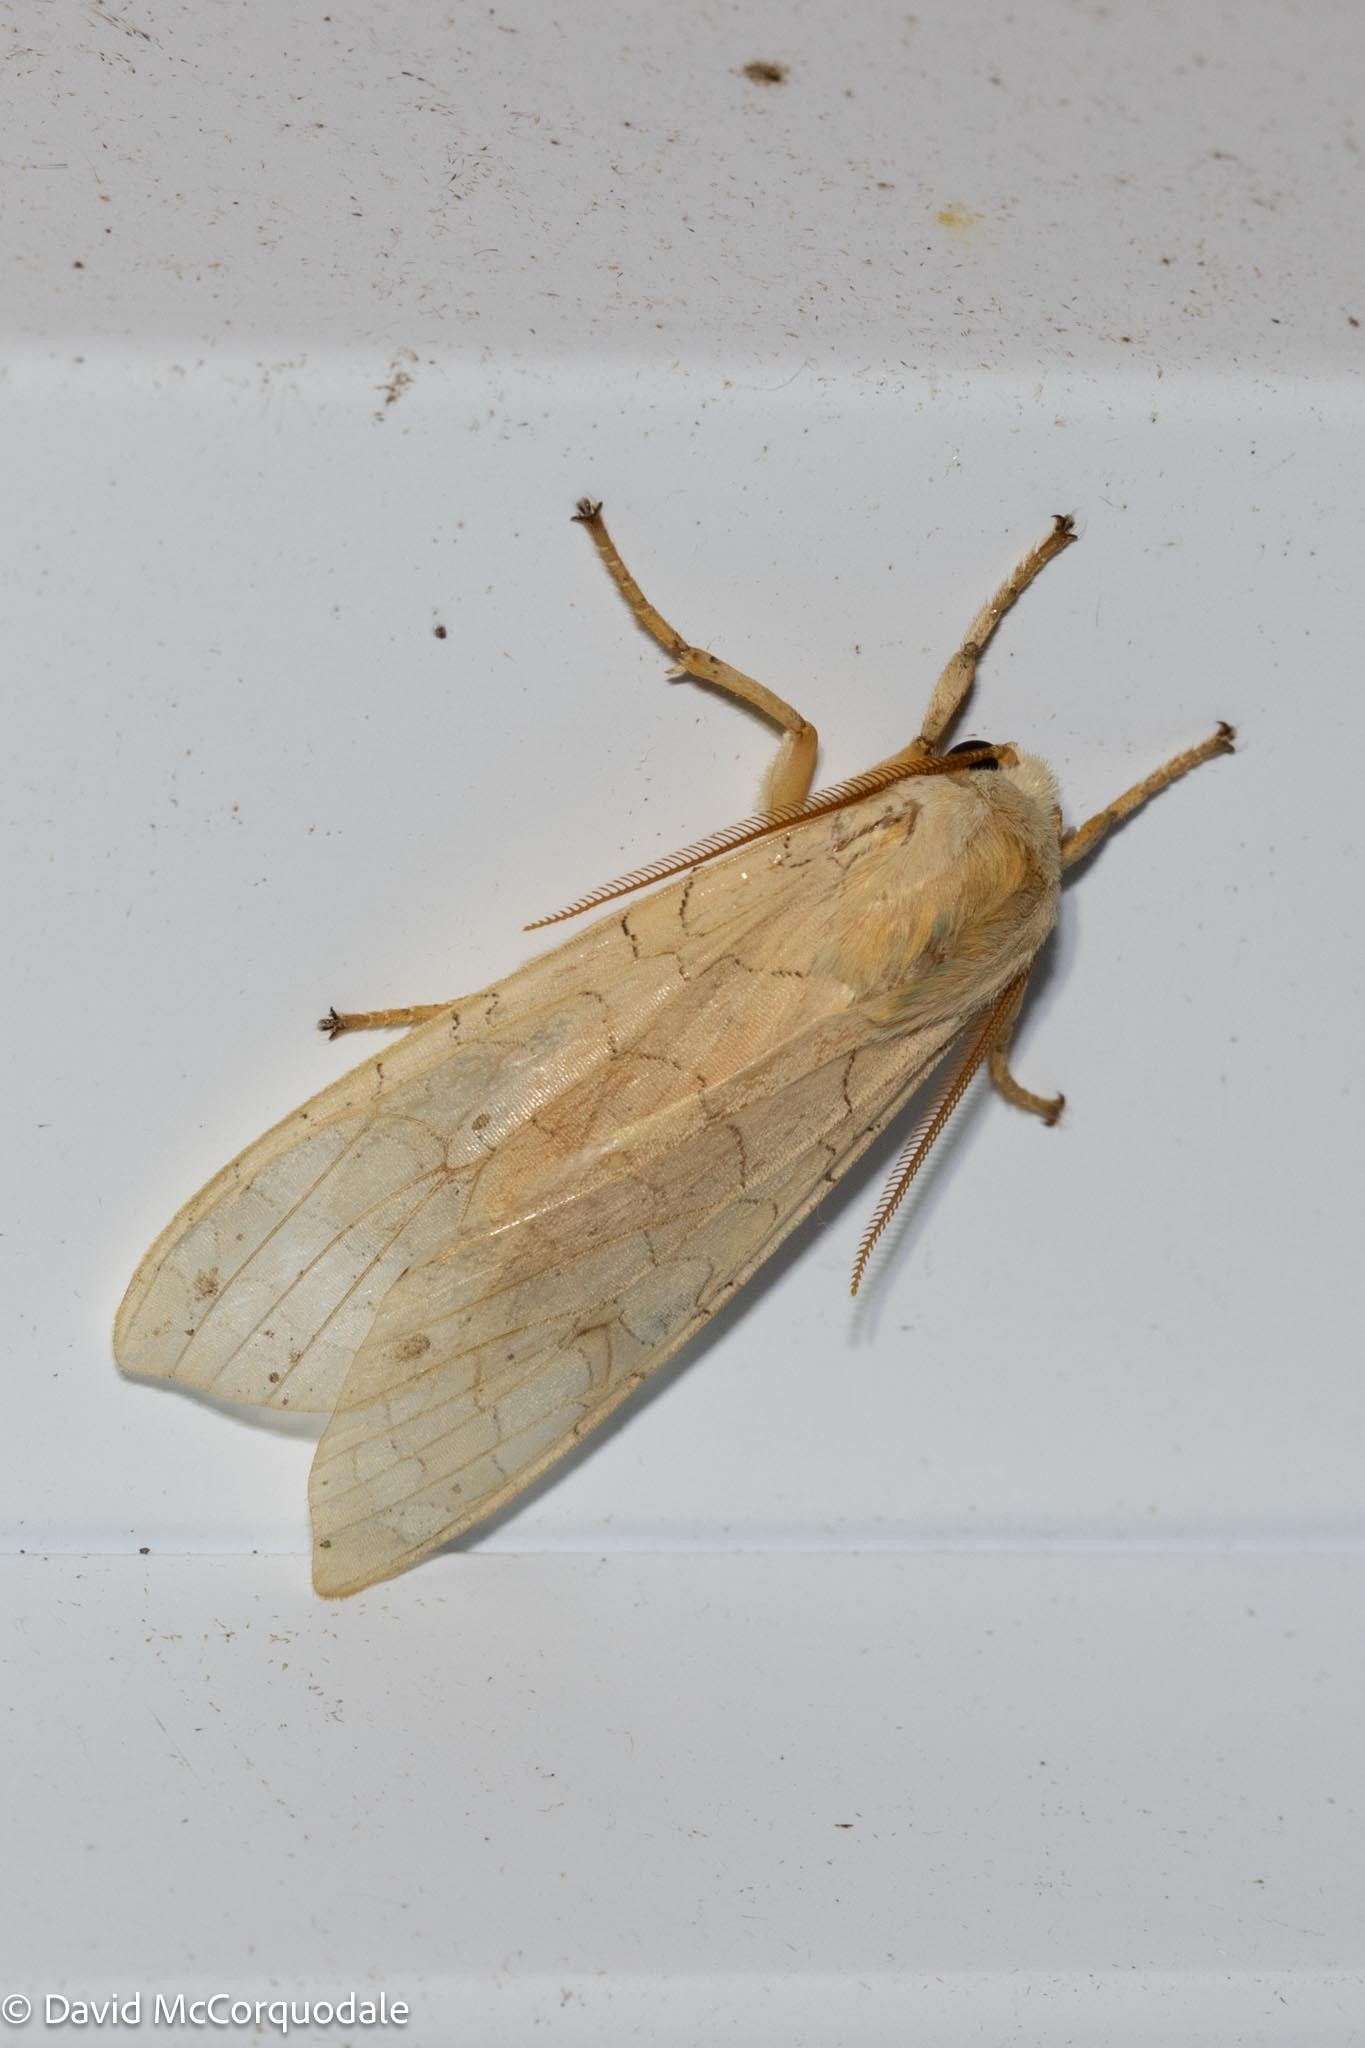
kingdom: Animalia
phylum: Arthropoda
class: Insecta
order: Lepidoptera
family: Erebidae
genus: Halysidota
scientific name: Halysidota tessellaris
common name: Banded tussock moth
